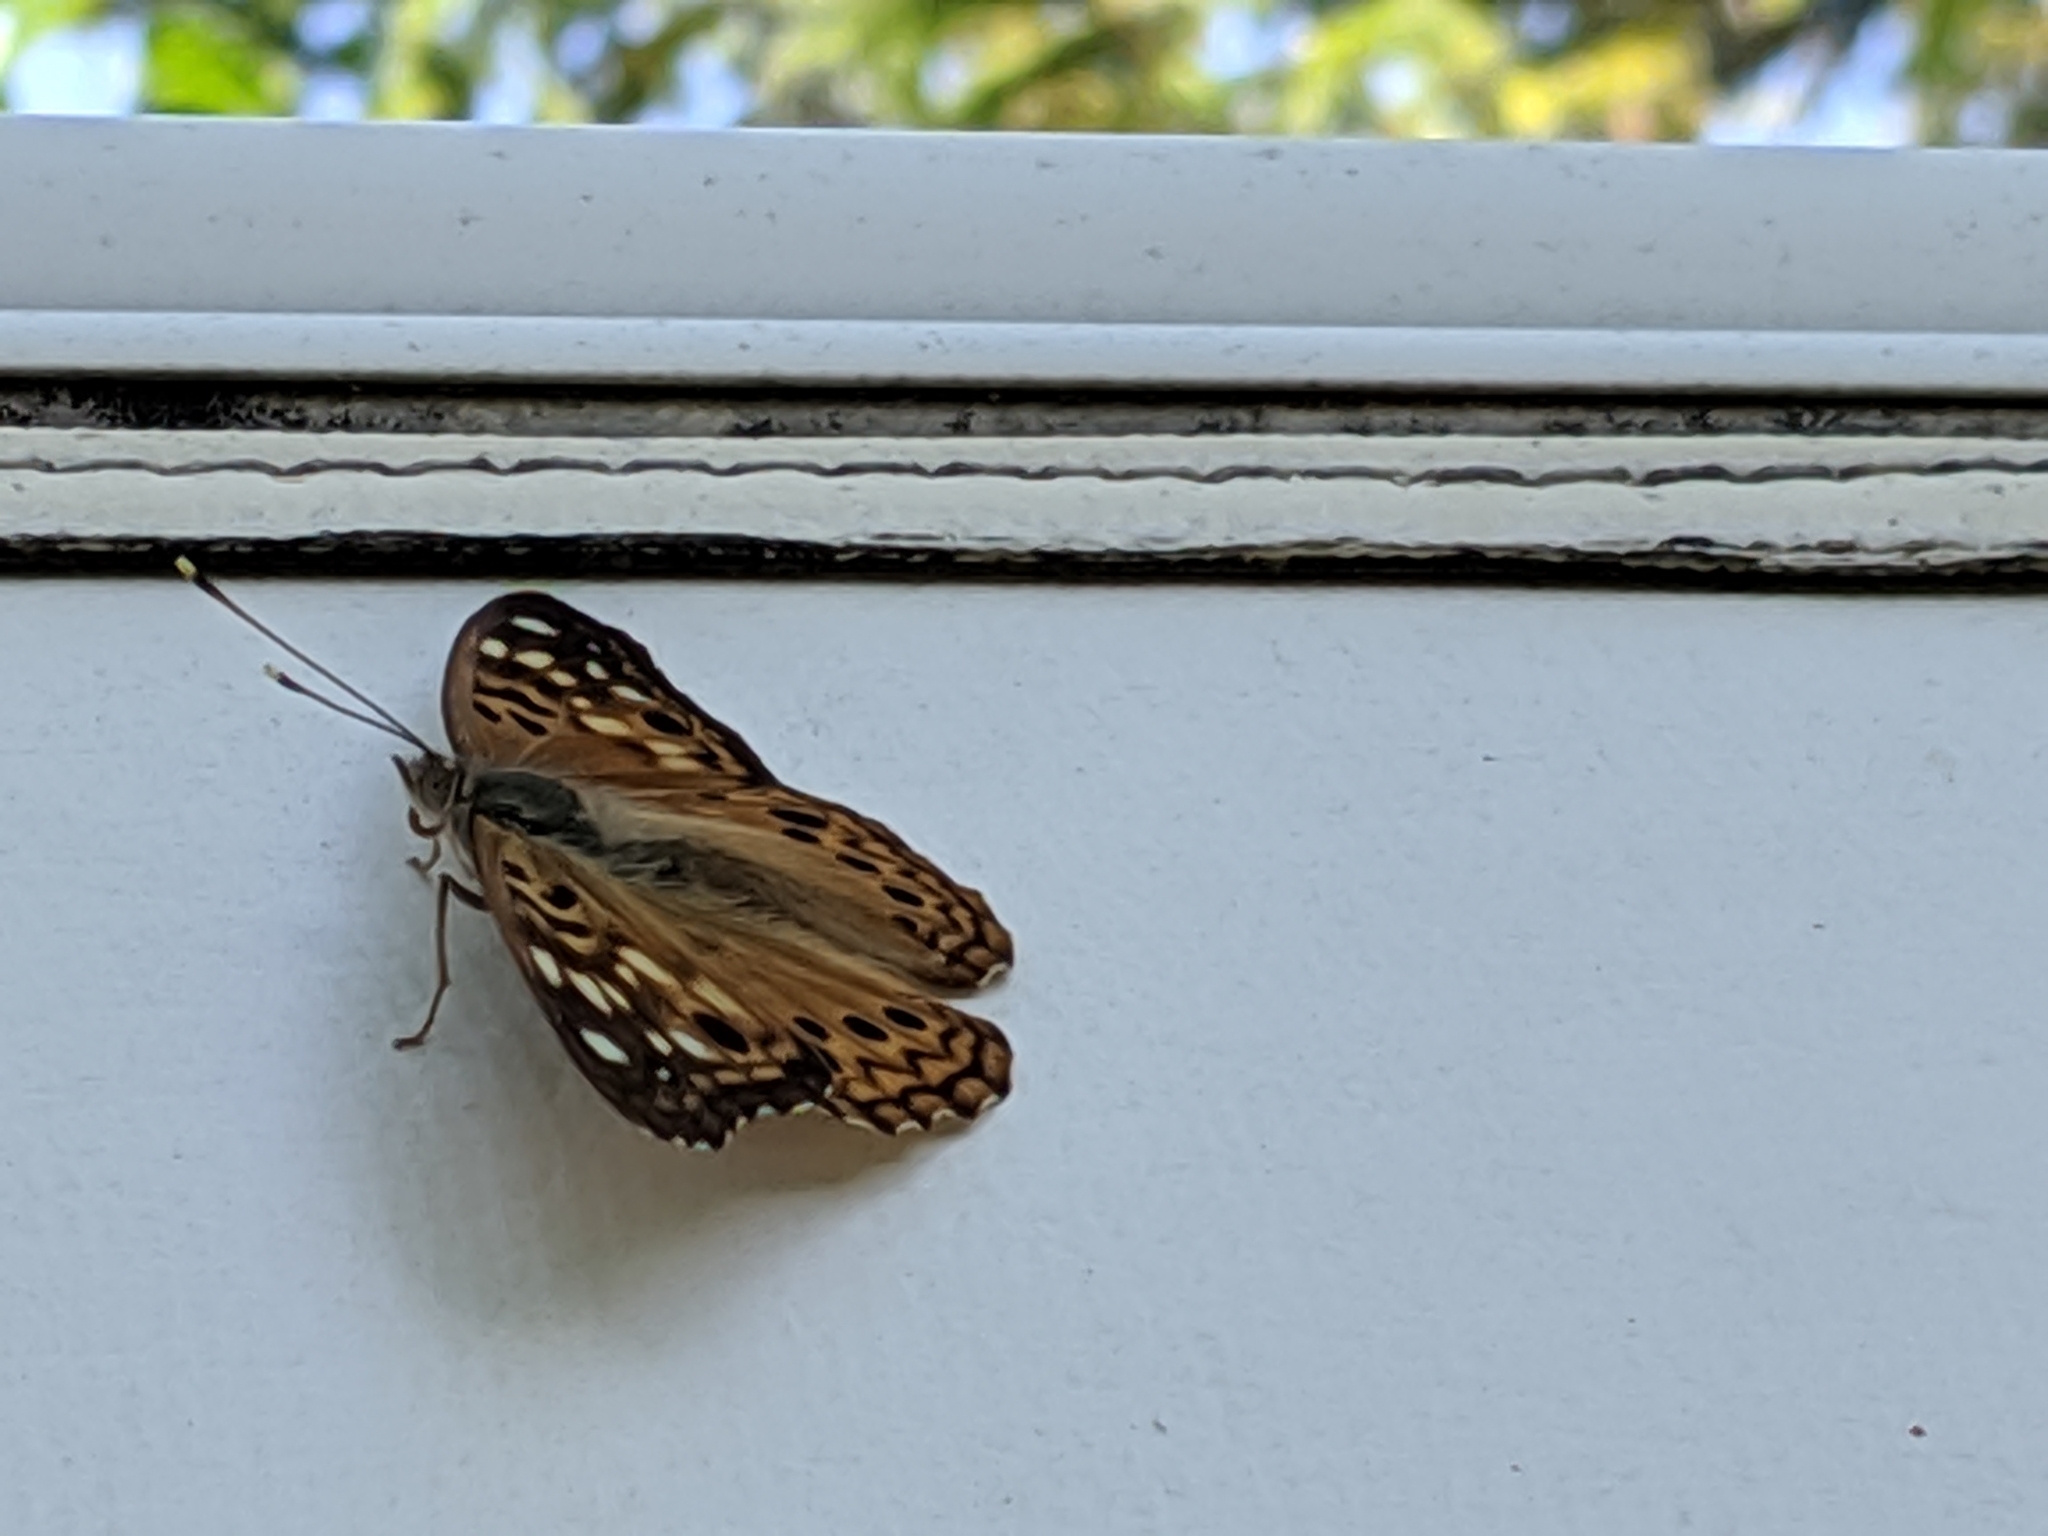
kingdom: Animalia
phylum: Arthropoda
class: Insecta
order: Lepidoptera
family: Nymphalidae
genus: Asterocampa
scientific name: Asterocampa celtis
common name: Hackberry emperor
